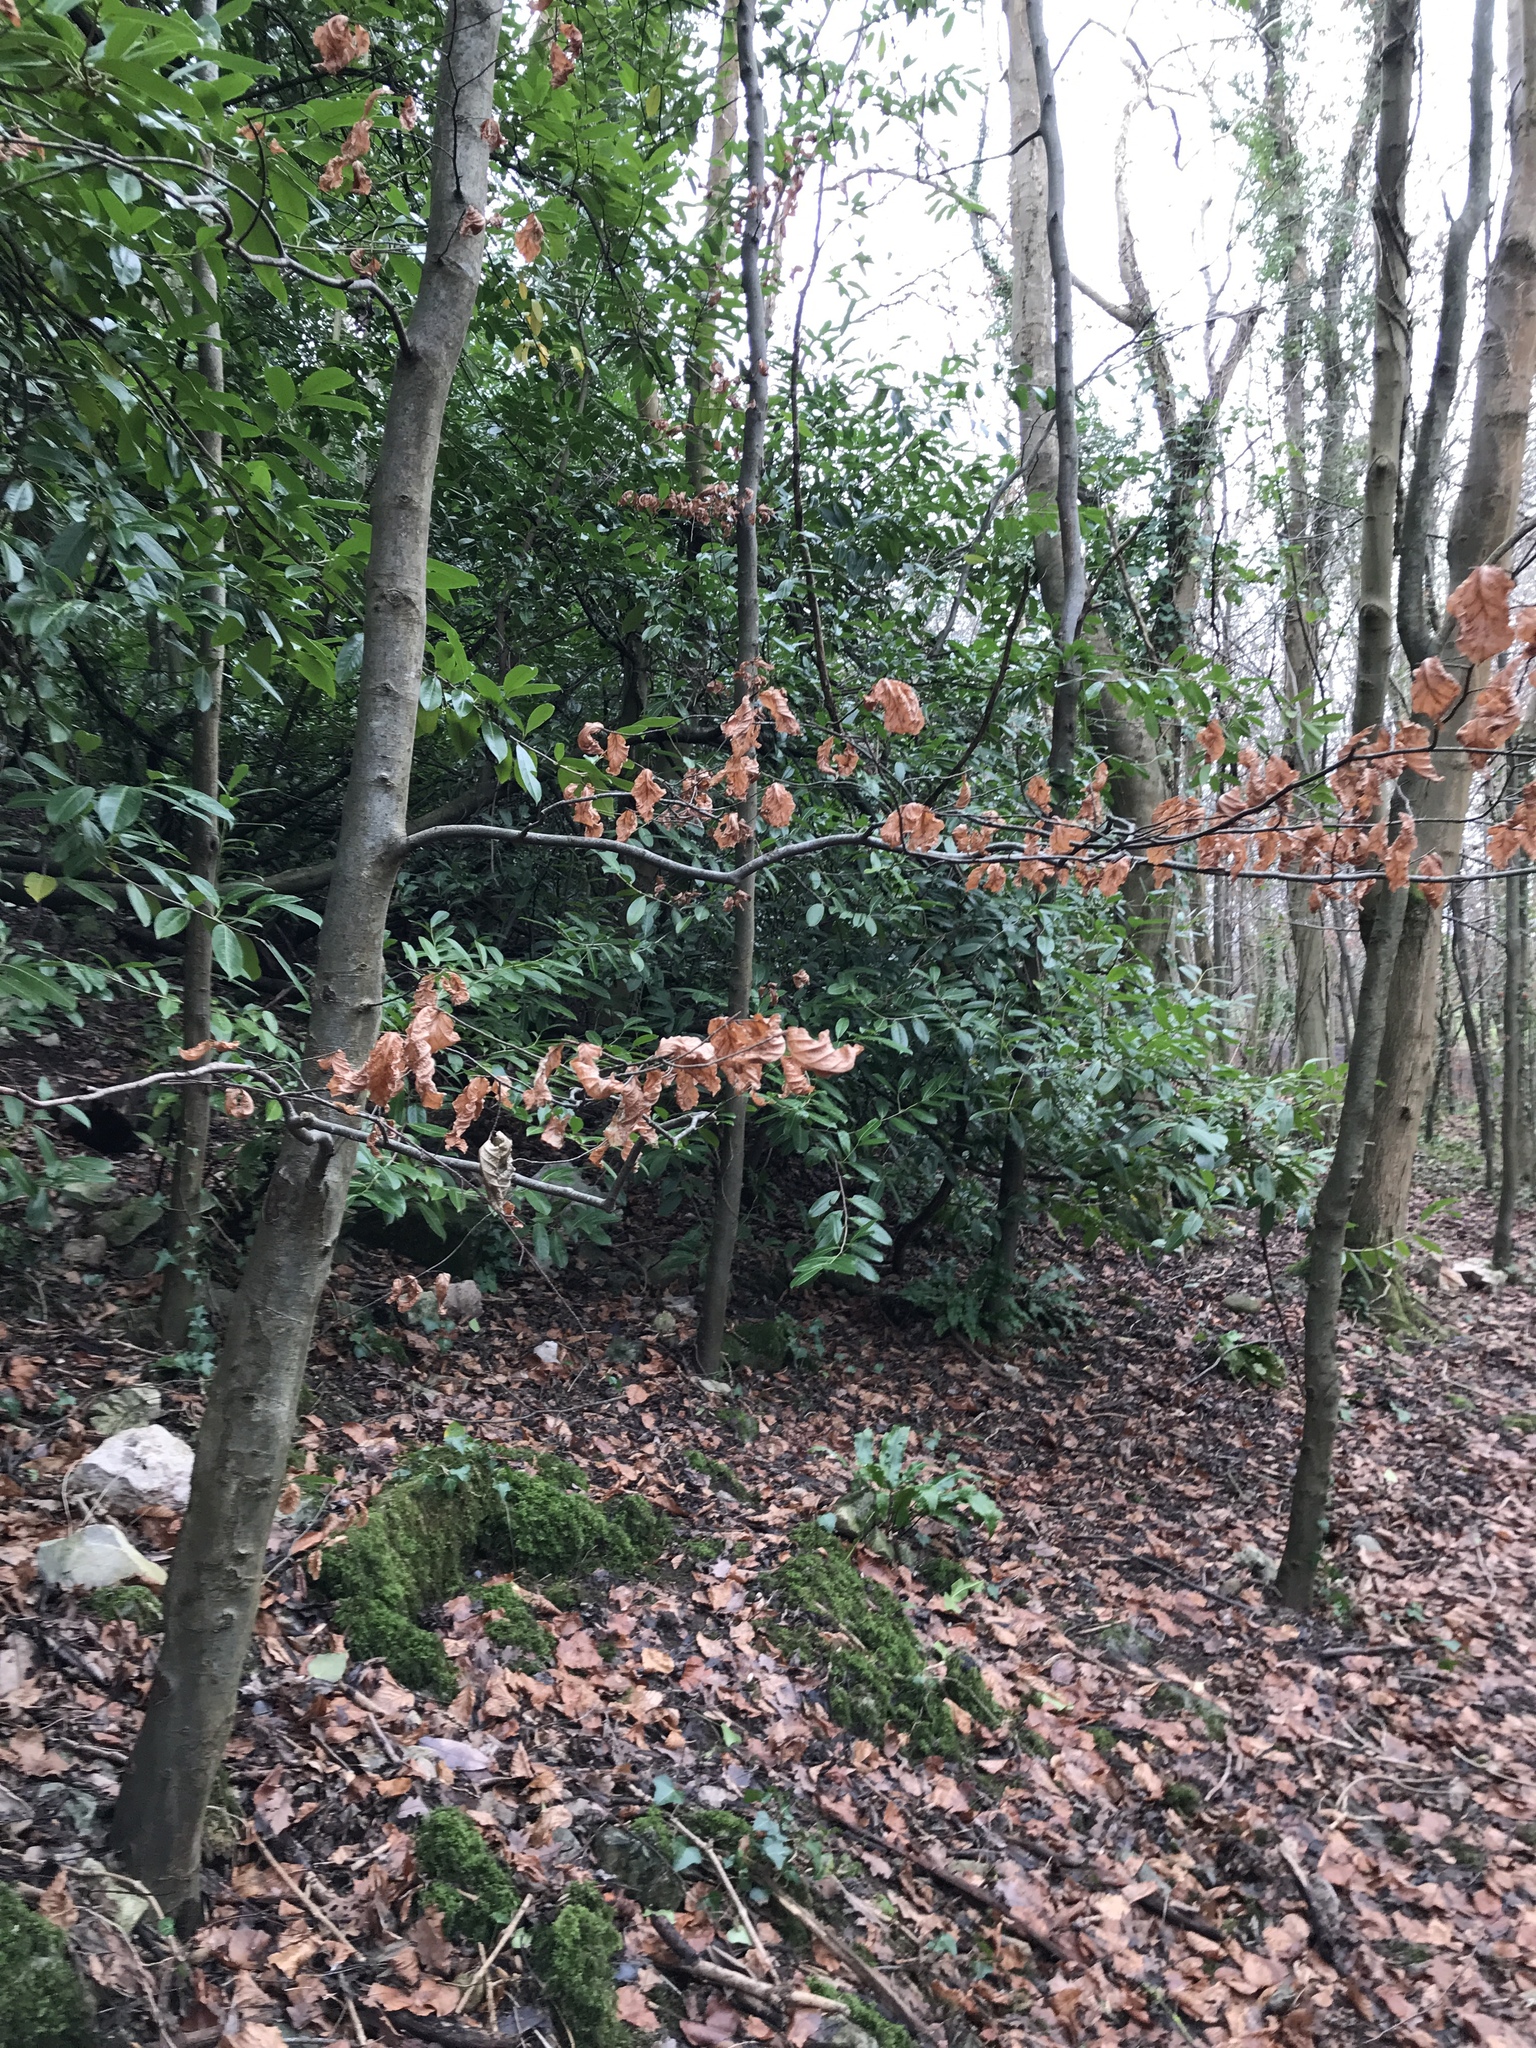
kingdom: Plantae
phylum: Tracheophyta
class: Magnoliopsida
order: Fagales
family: Fagaceae
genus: Fagus
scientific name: Fagus sylvatica
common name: Beech
